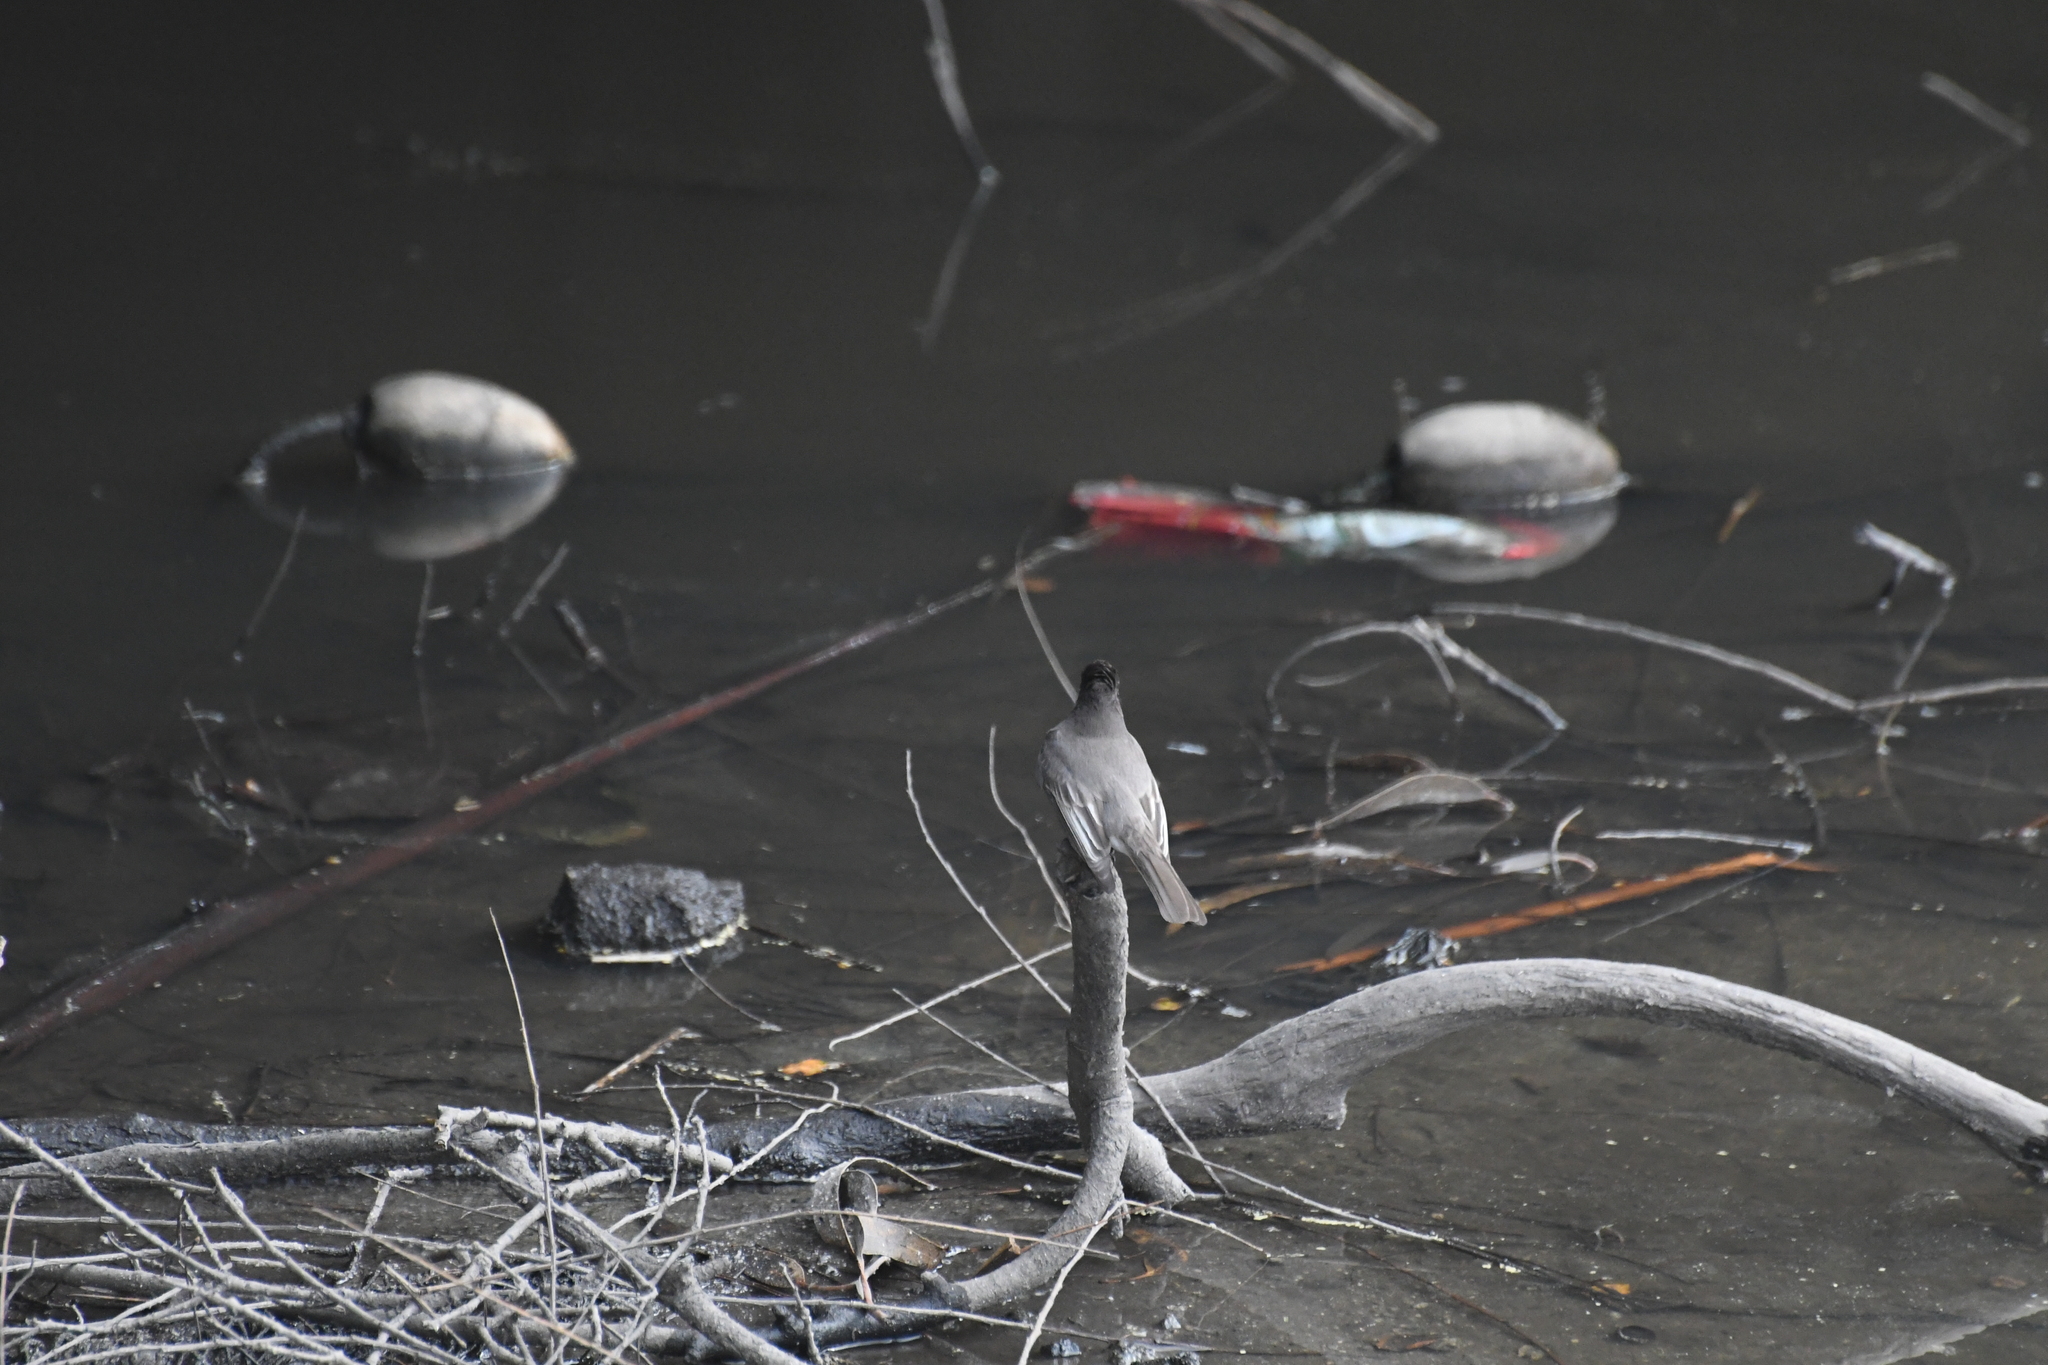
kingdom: Animalia
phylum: Chordata
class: Aves
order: Passeriformes
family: Tyrannidae
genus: Sayornis
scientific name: Sayornis nigricans
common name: Black phoebe
